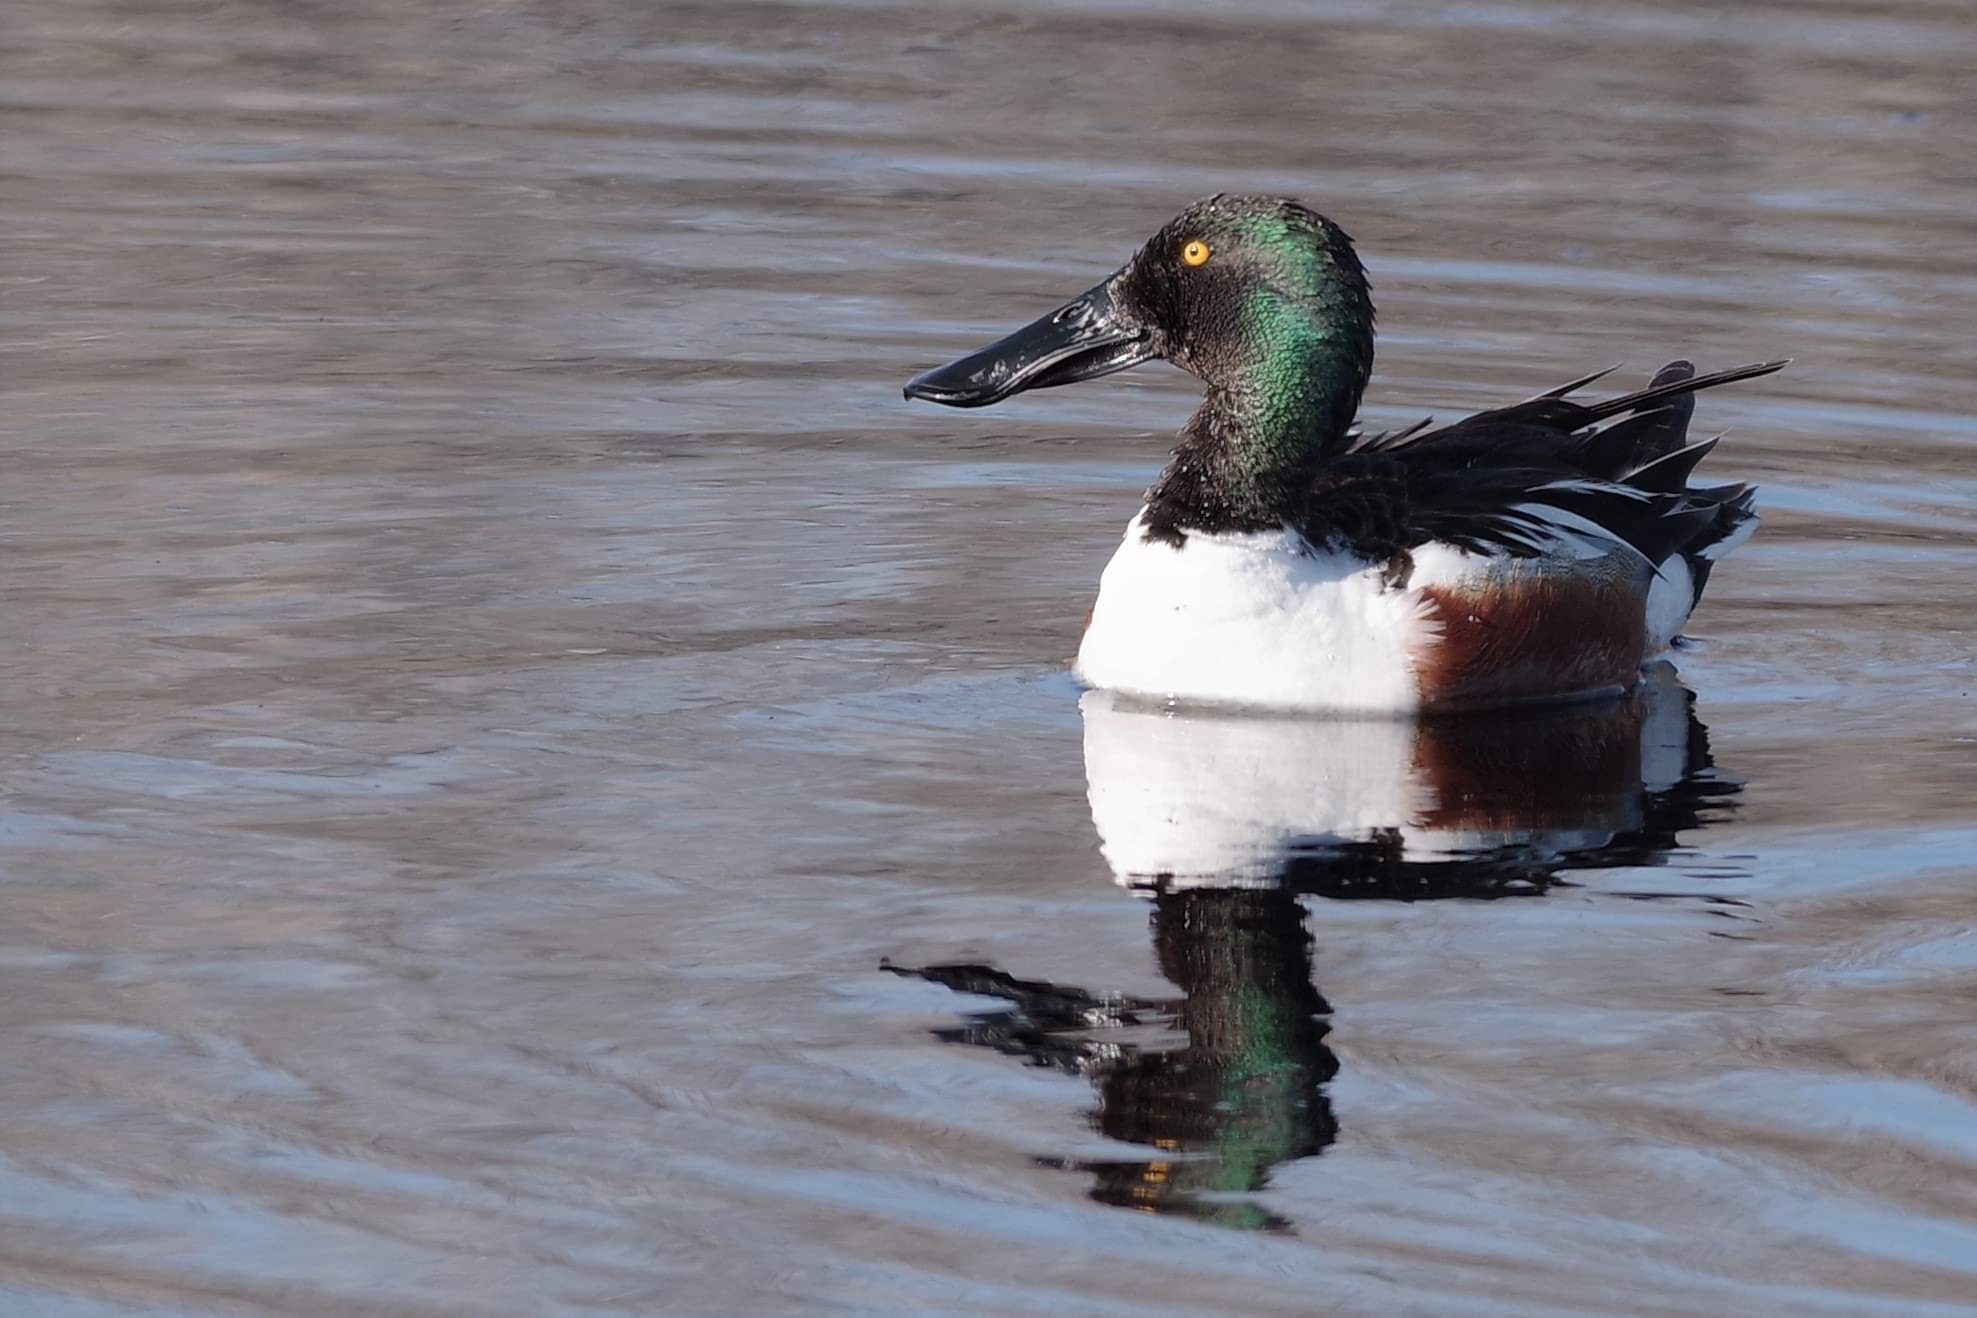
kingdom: Animalia
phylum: Chordata
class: Aves
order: Anseriformes
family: Anatidae
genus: Spatula
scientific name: Spatula clypeata
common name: Northern shoveler
